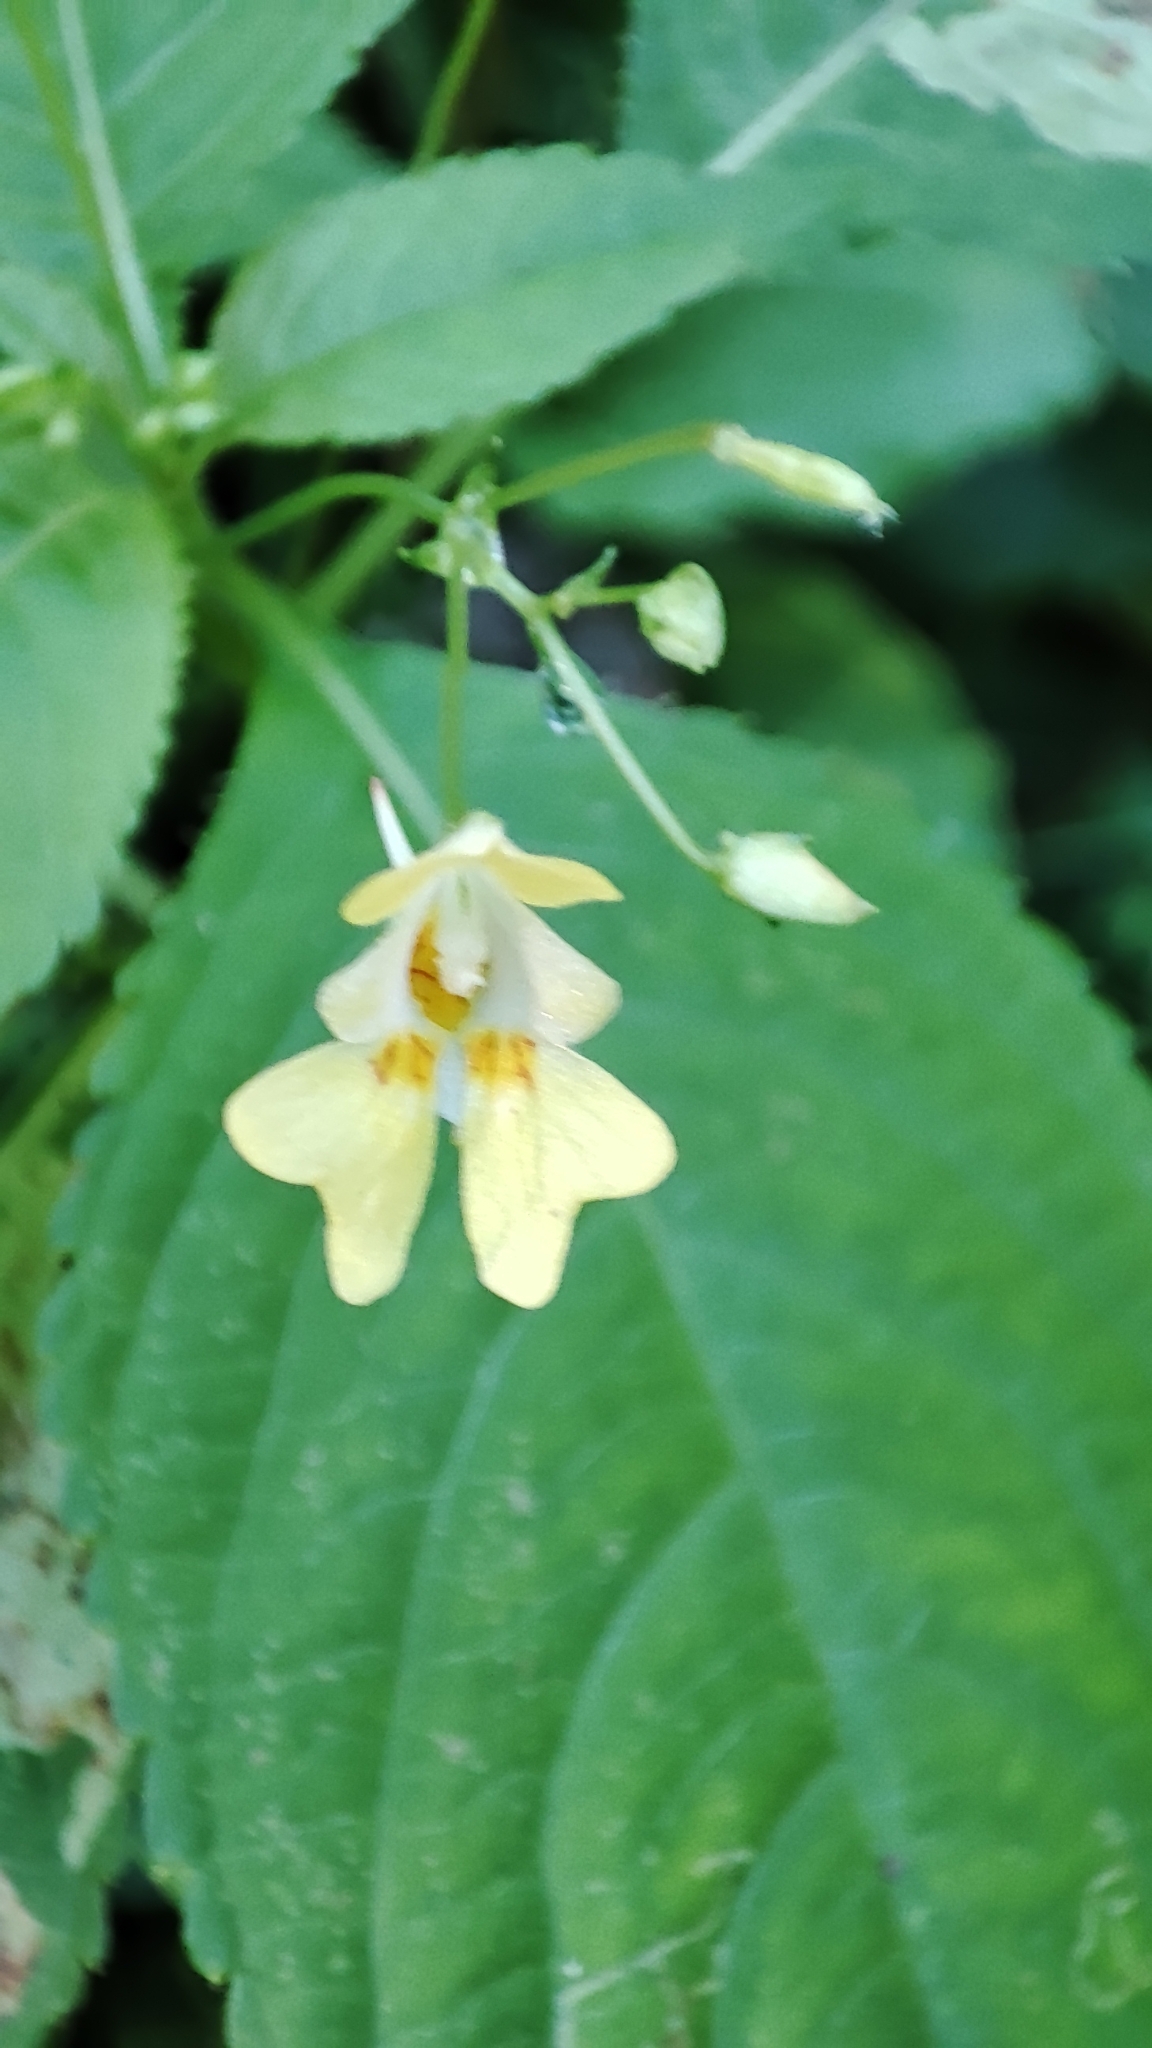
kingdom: Plantae
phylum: Tracheophyta
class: Magnoliopsida
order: Ericales
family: Balsaminaceae
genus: Impatiens
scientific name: Impatiens parviflora
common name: Small balsam
